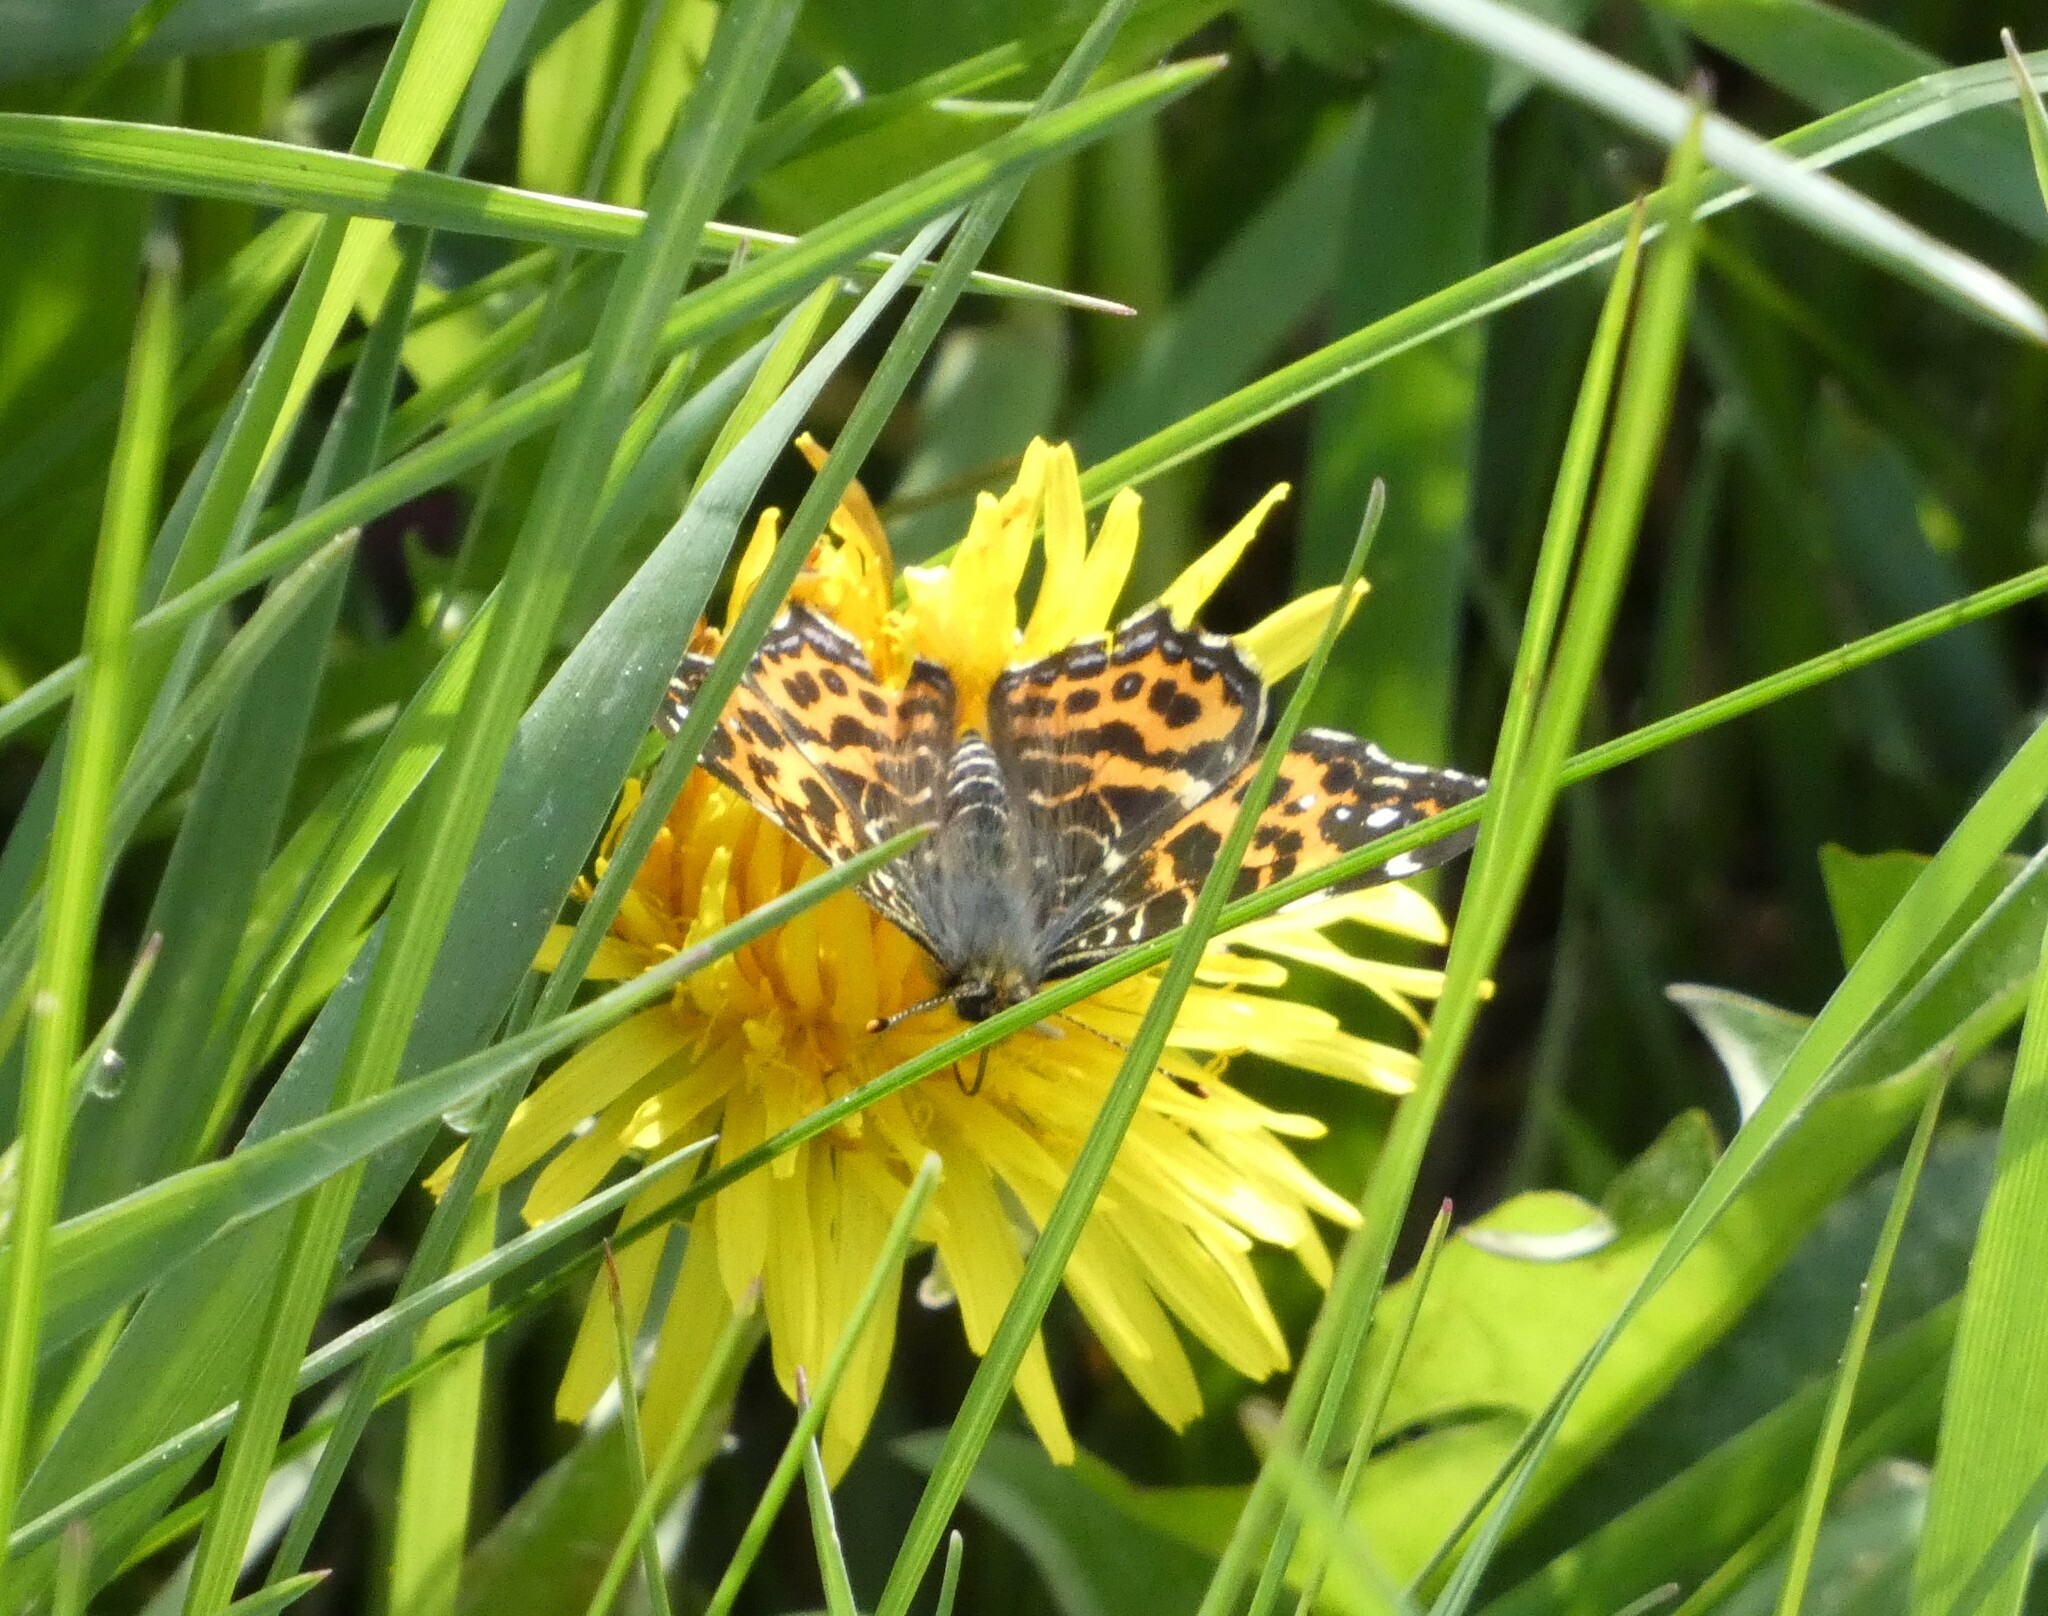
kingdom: Animalia
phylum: Arthropoda
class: Insecta
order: Lepidoptera
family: Nymphalidae
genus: Araschnia
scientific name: Araschnia levana
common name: Map butterfly
